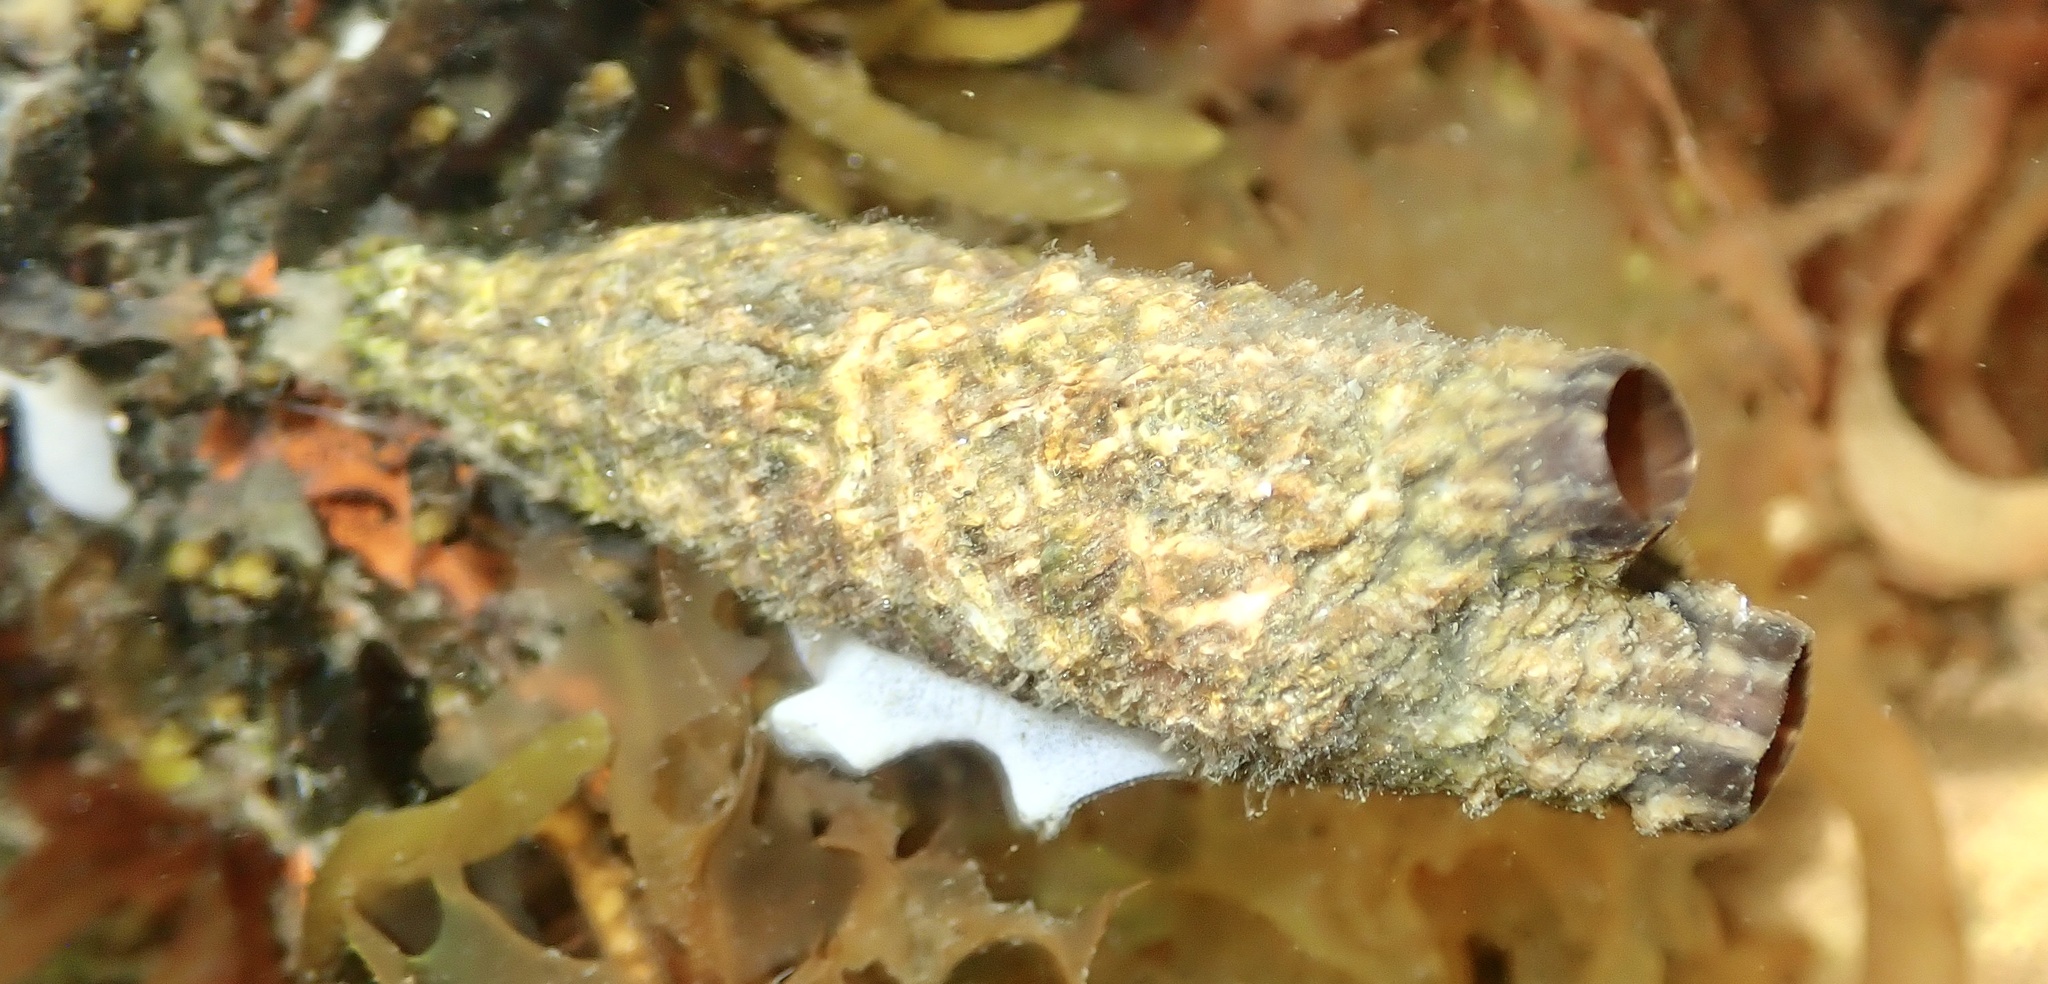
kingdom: Animalia
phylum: Chordata
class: Ascidiacea
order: Stolidobranchia
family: Styelidae
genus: Styela
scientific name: Styela clava
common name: Leathery sea squirt
